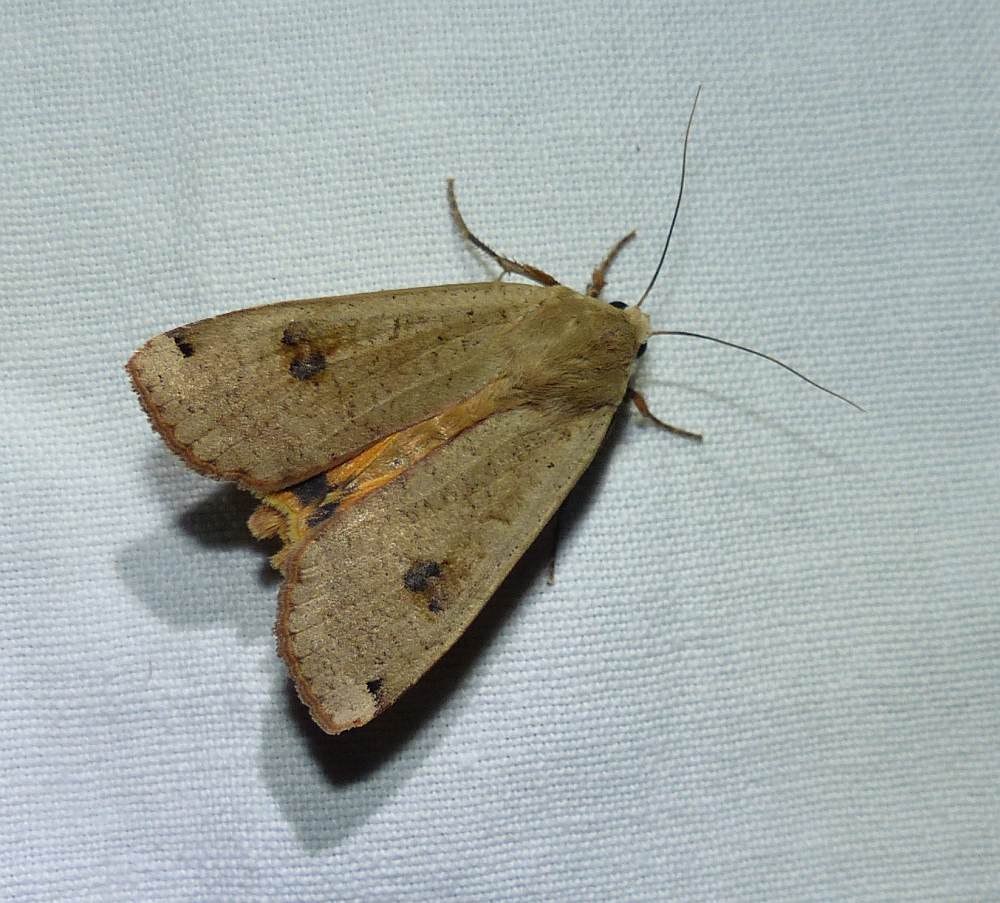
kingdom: Animalia
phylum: Arthropoda
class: Insecta
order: Lepidoptera
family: Noctuidae
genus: Noctua
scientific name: Noctua pronuba
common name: Large yellow underwing
